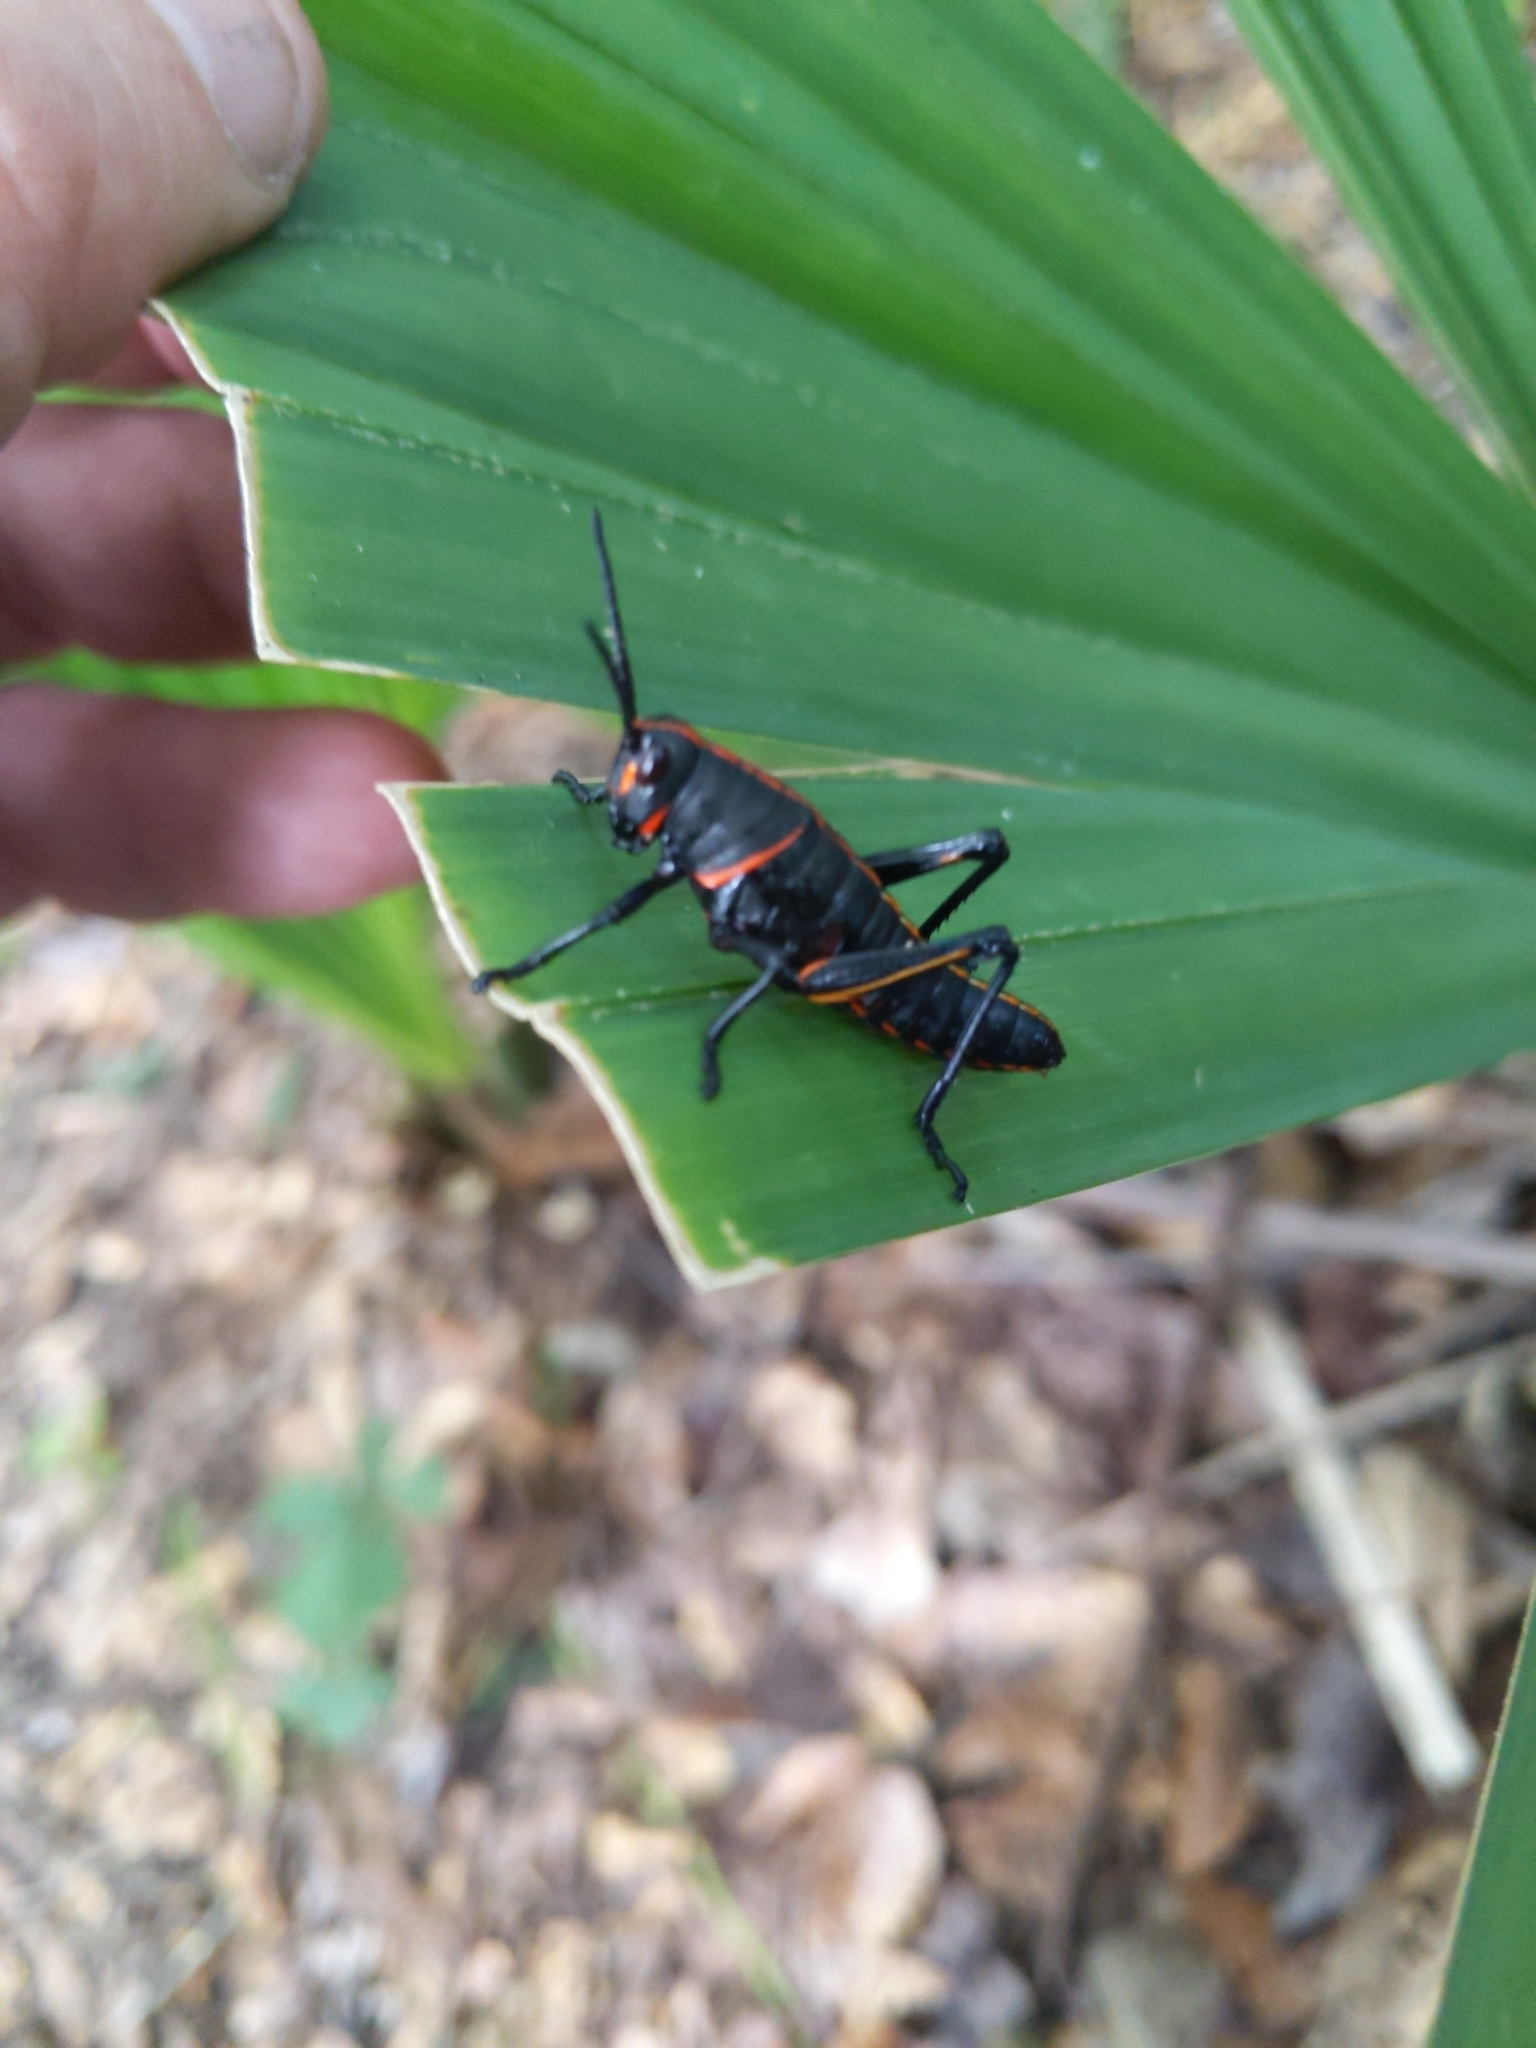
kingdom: Animalia
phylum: Arthropoda
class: Insecta
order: Orthoptera
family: Romaleidae
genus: Romalea
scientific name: Romalea microptera
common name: Eastern lubber grasshopper
